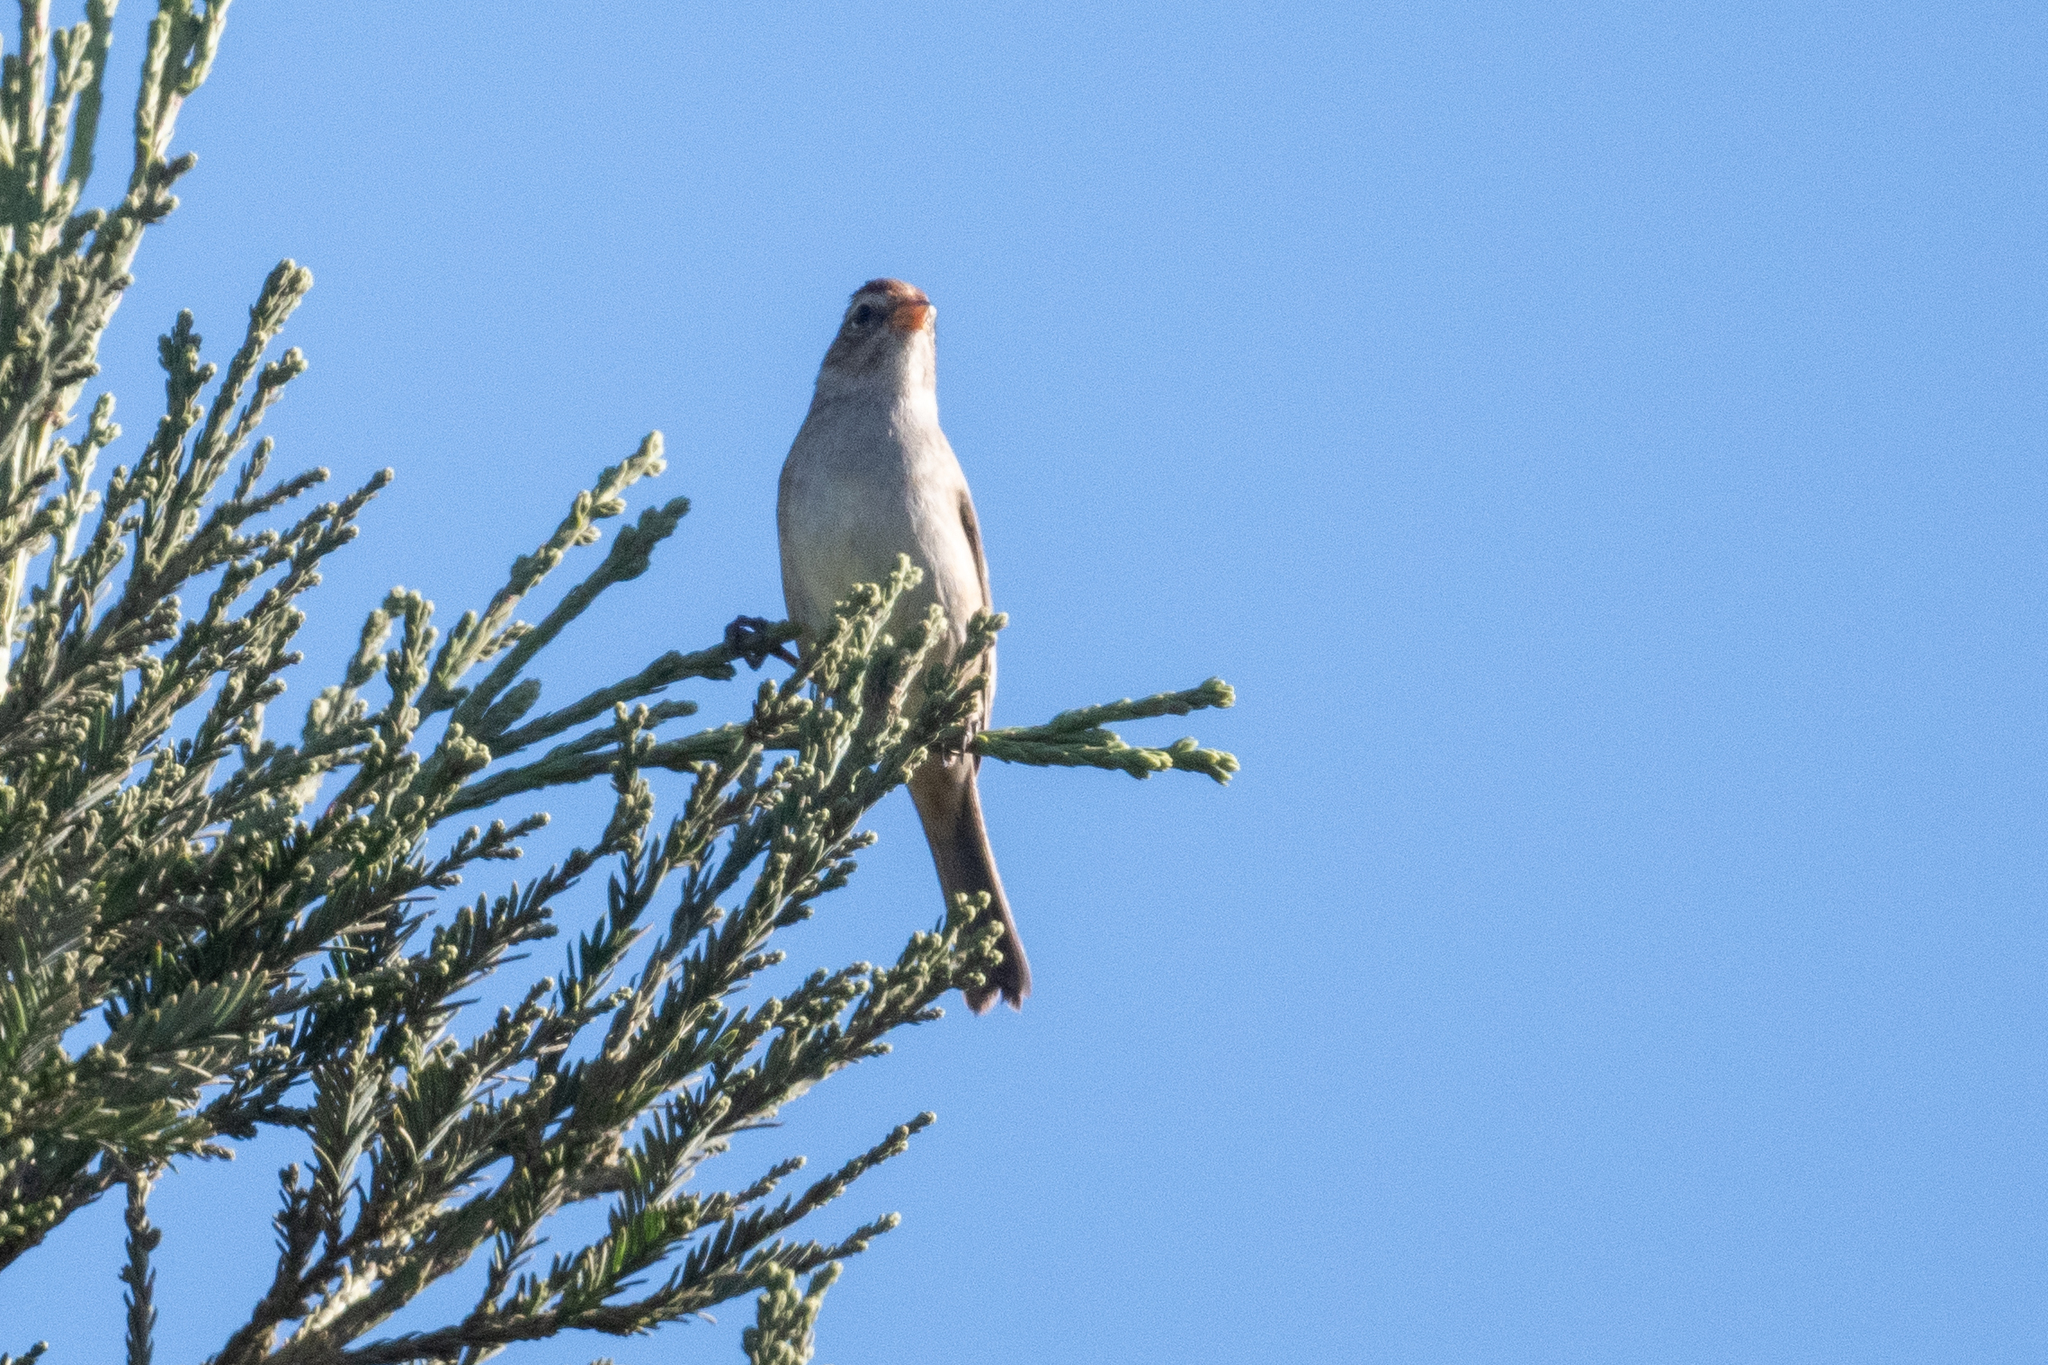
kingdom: Animalia
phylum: Chordata
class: Aves
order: Passeriformes
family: Passerellidae
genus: Zonotrichia
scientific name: Zonotrichia leucophrys
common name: White-crowned sparrow
